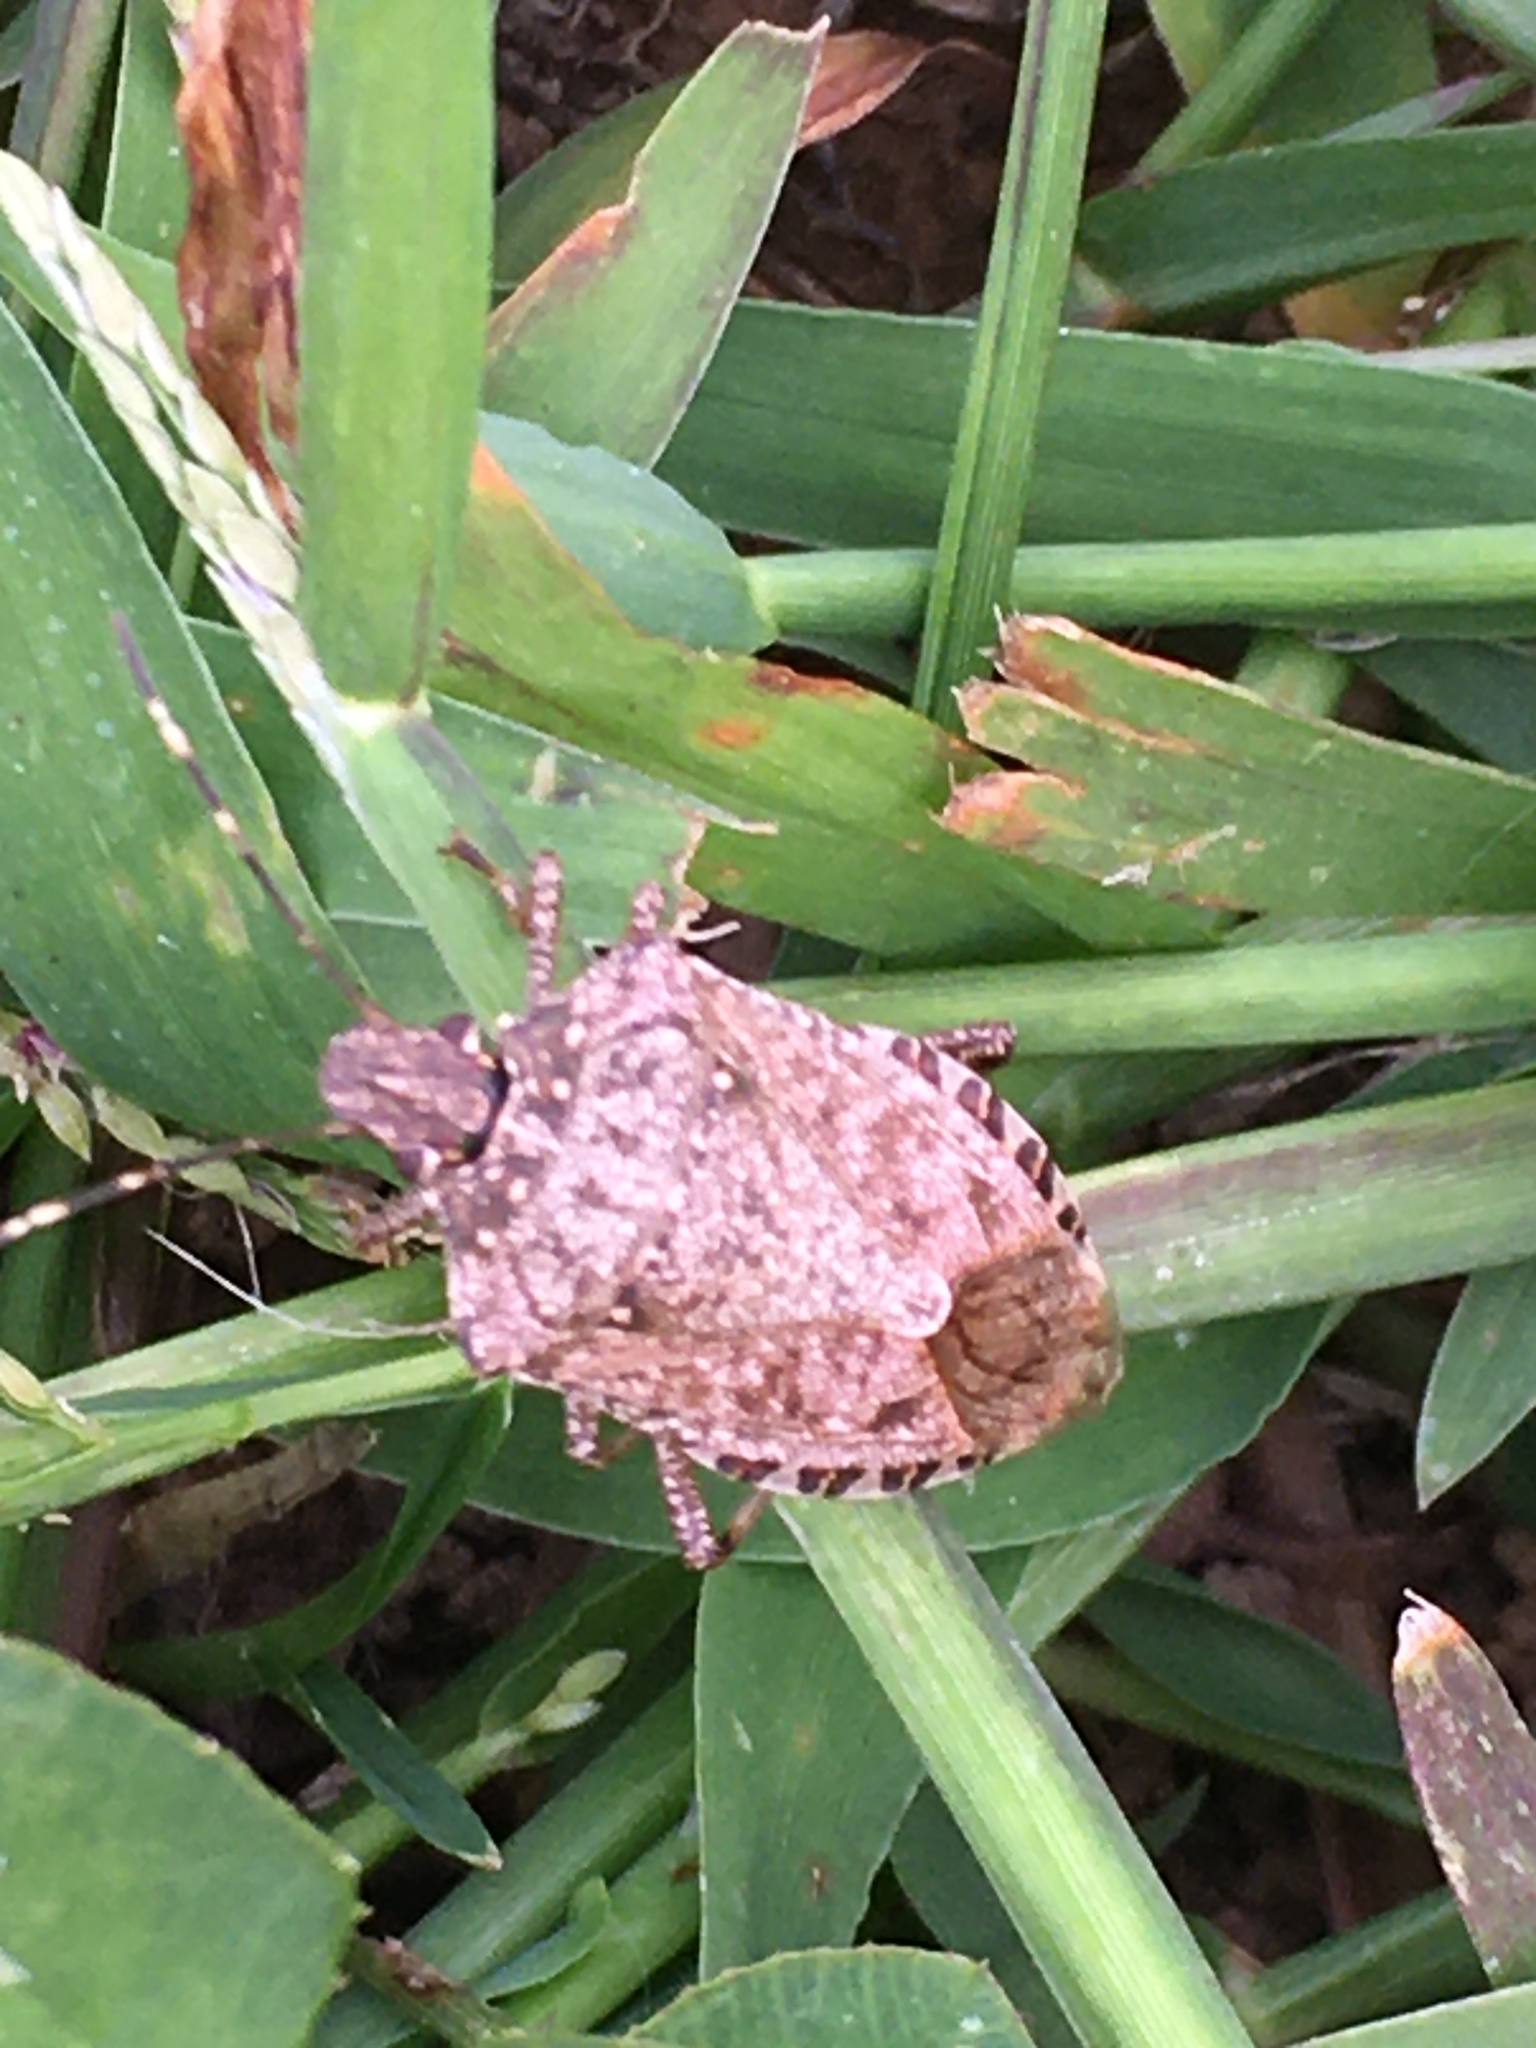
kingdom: Animalia
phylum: Arthropoda
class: Insecta
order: Hemiptera
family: Pentatomidae
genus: Halyomorpha
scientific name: Halyomorpha halys
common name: Brown marmorated stink bug
